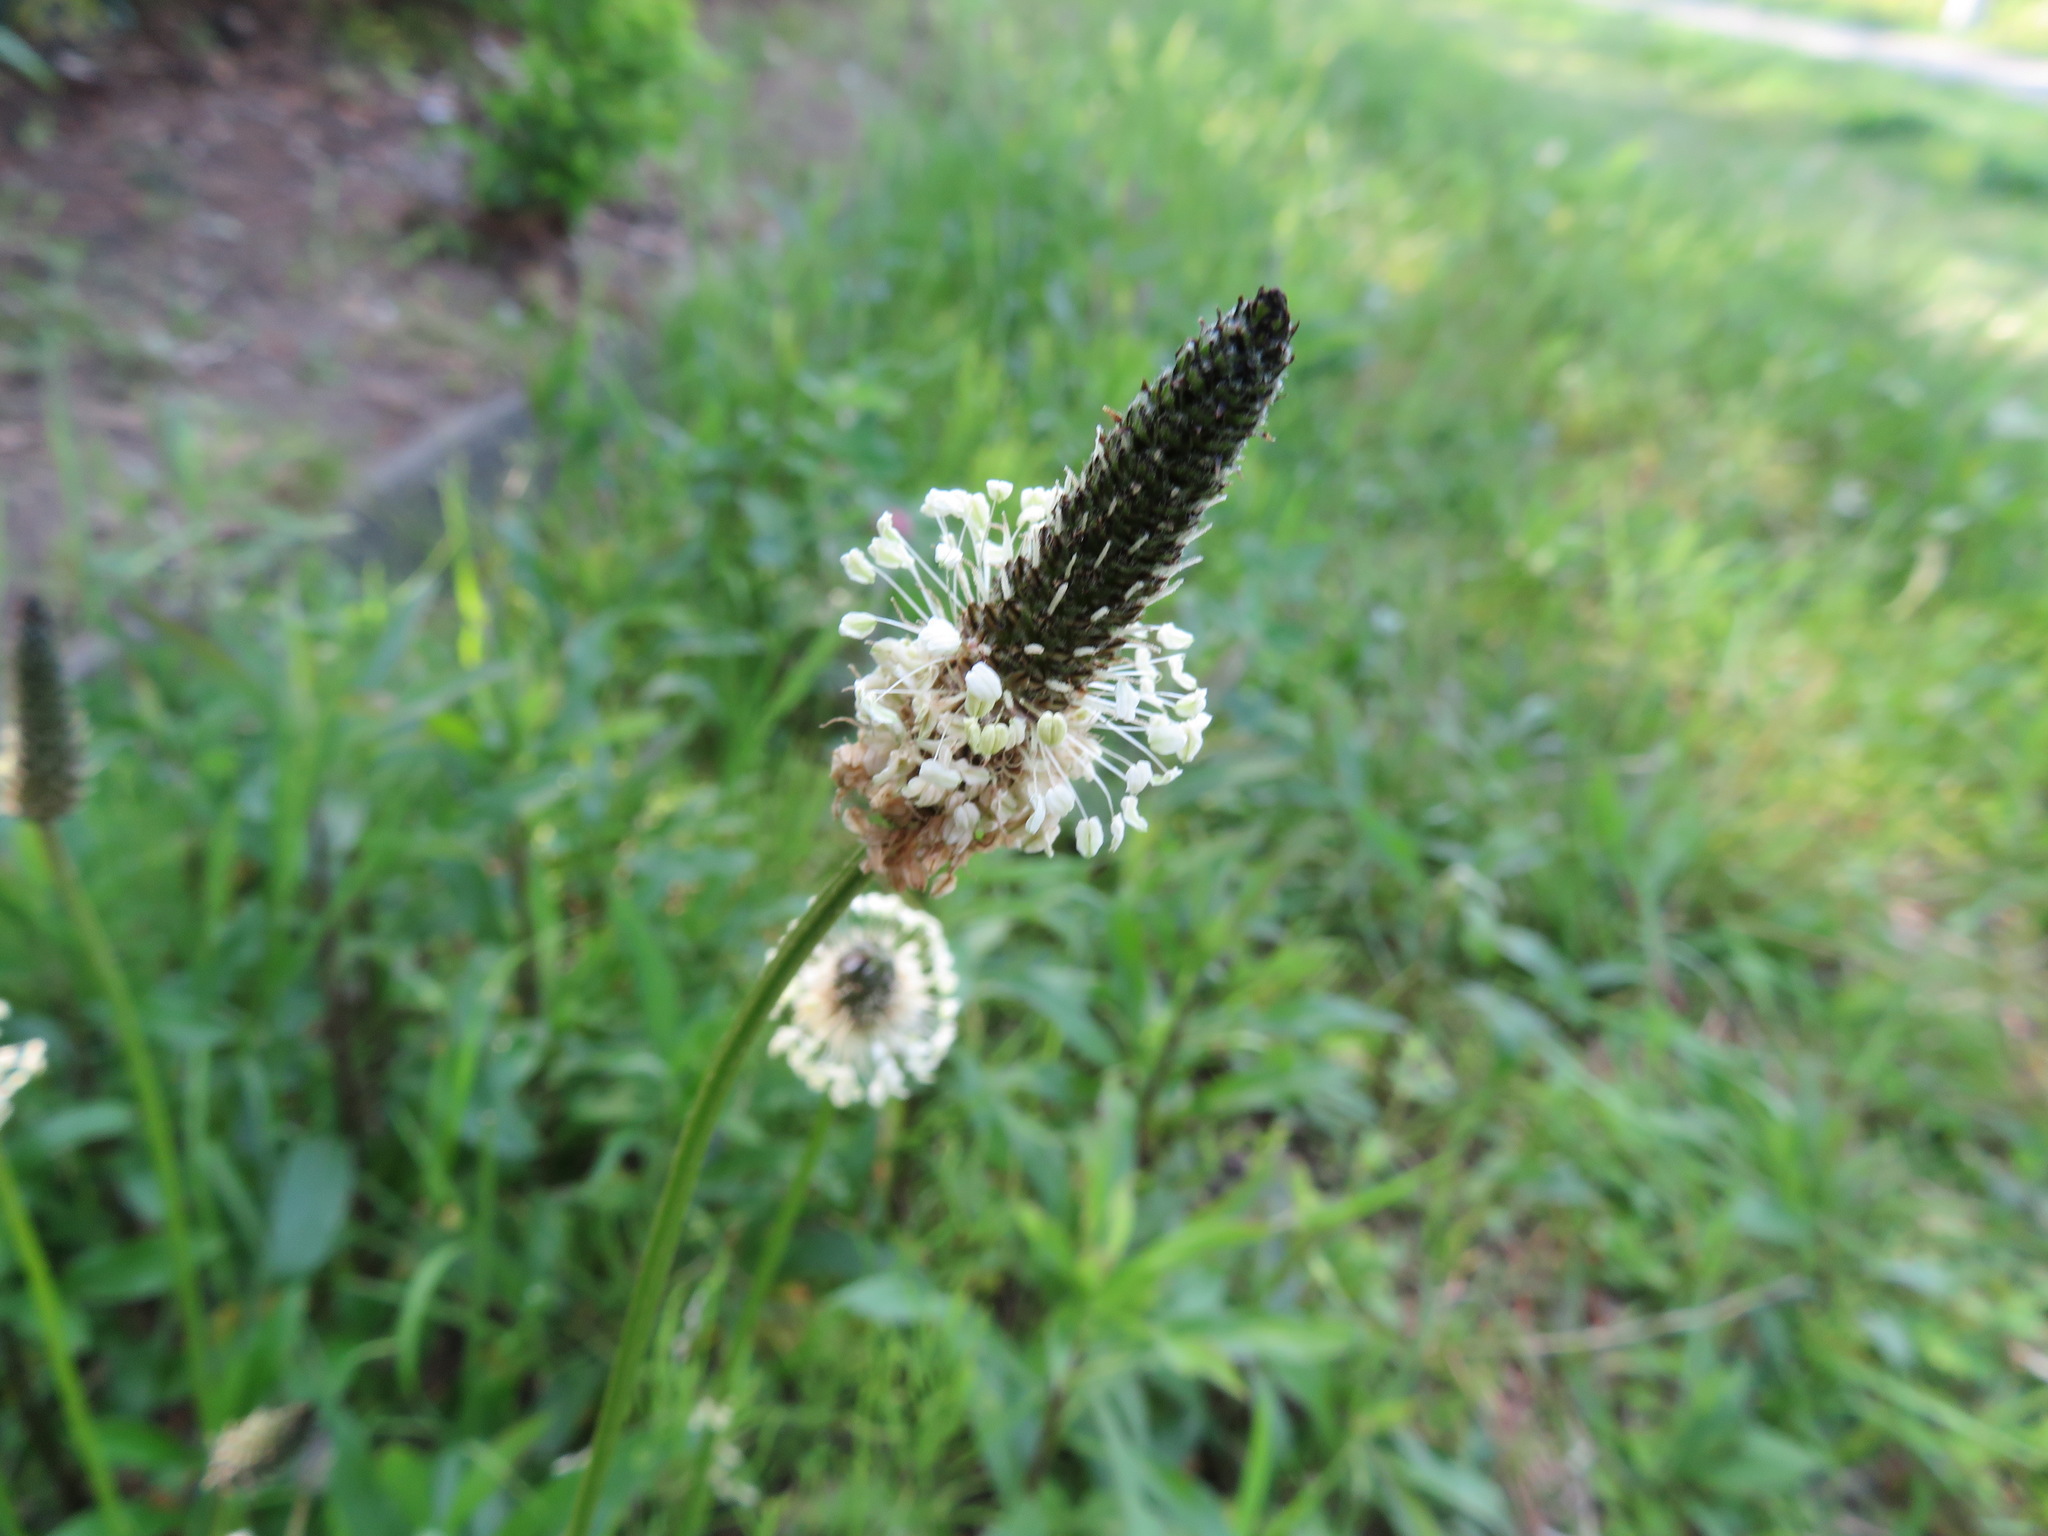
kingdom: Plantae
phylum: Tracheophyta
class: Magnoliopsida
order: Lamiales
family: Plantaginaceae
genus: Plantago
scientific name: Plantago lanceolata
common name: Ribwort plantain
